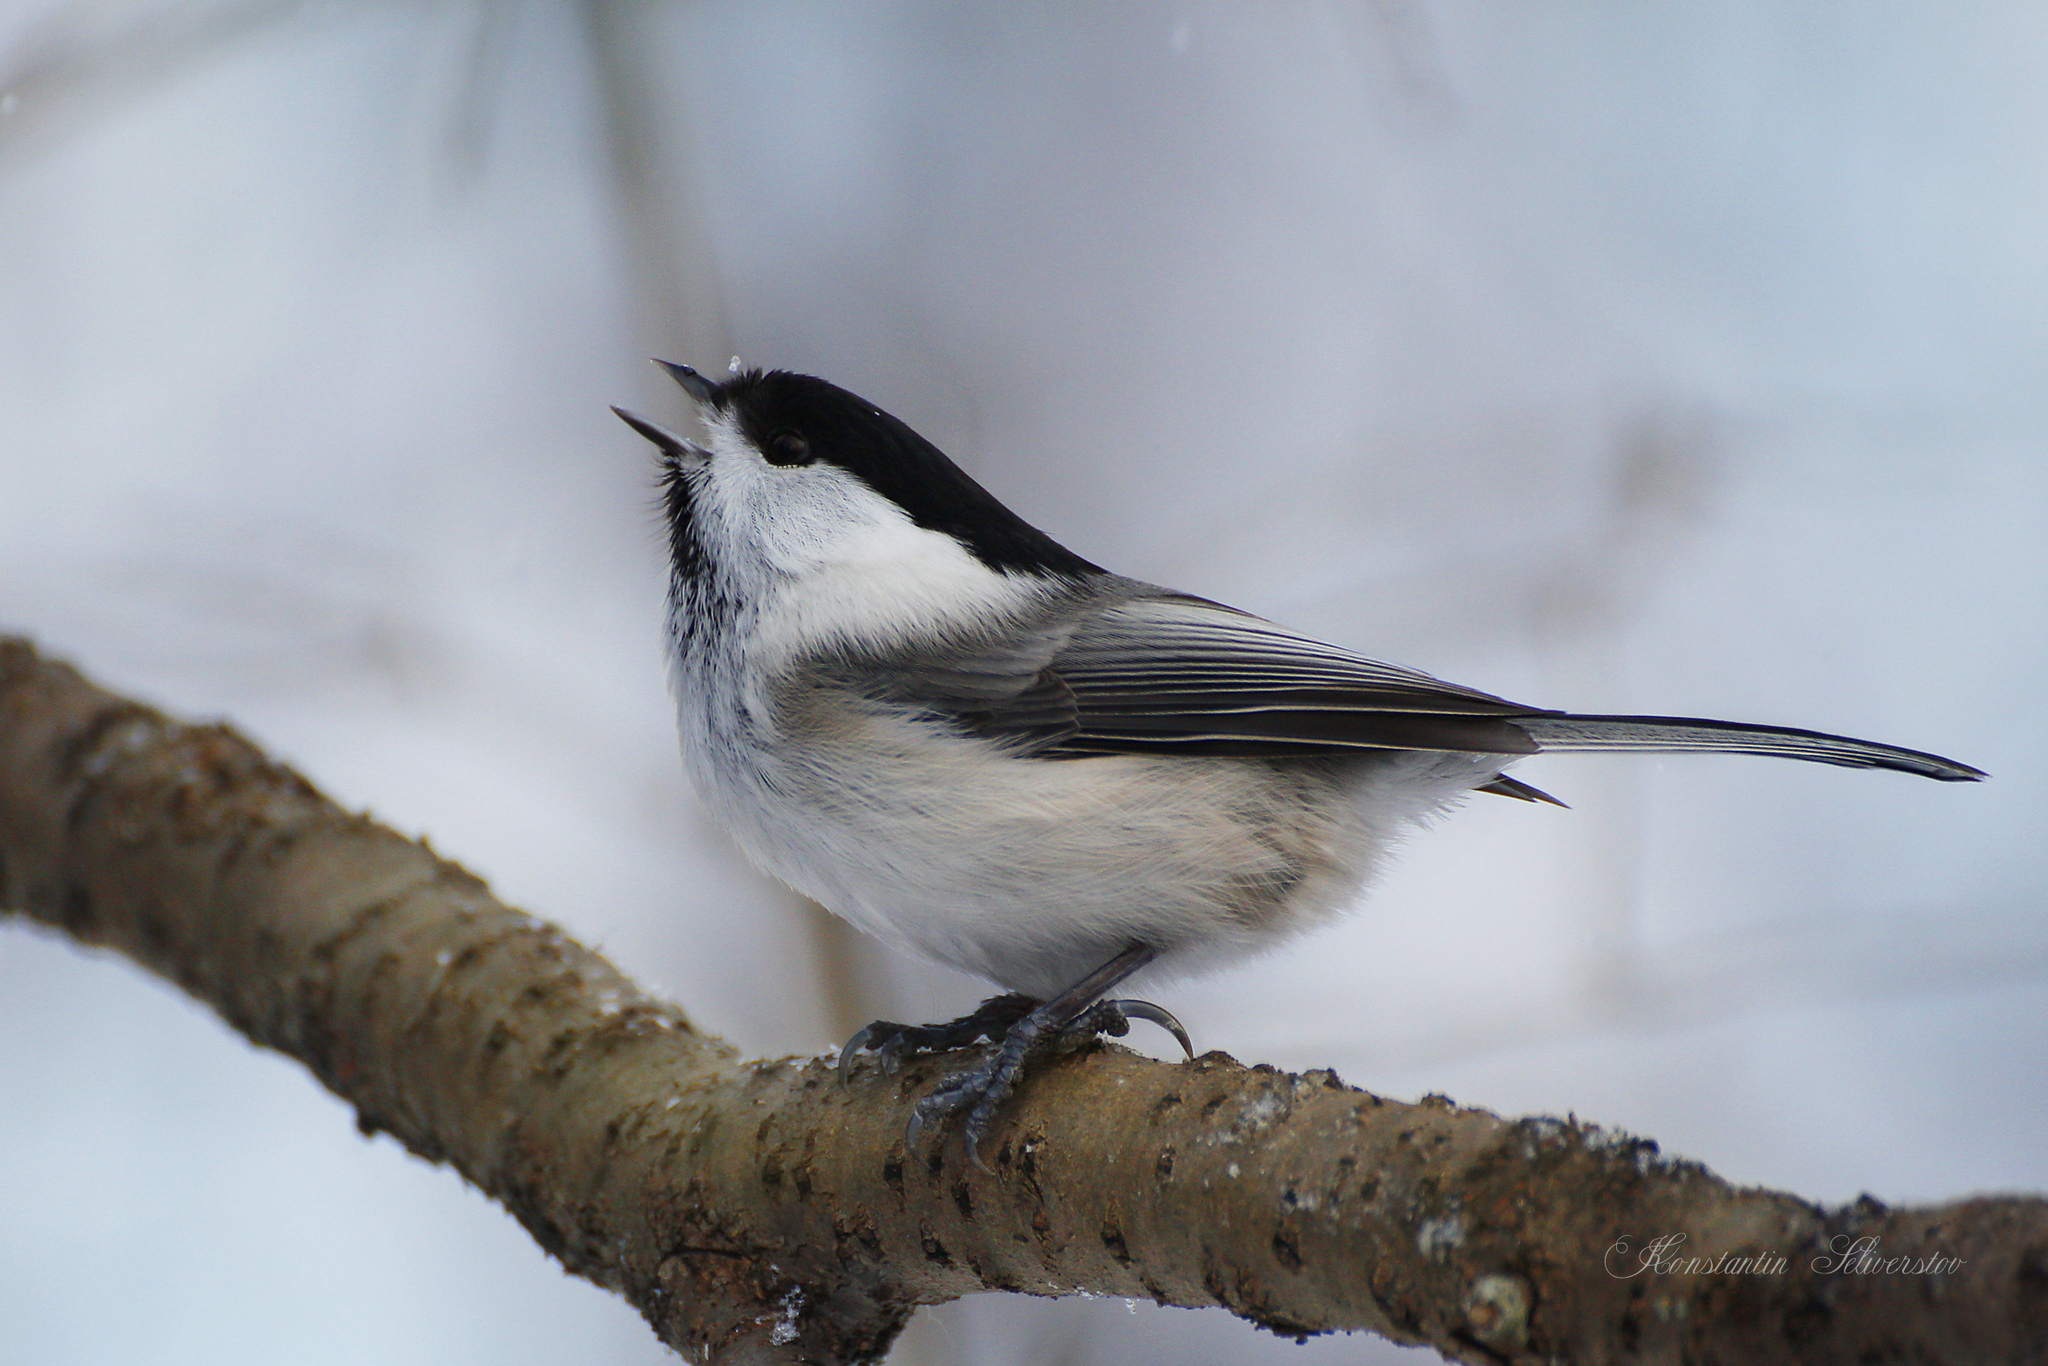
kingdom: Animalia
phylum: Chordata
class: Aves
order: Passeriformes
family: Paridae
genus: Poecile
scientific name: Poecile montanus
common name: Willow tit
